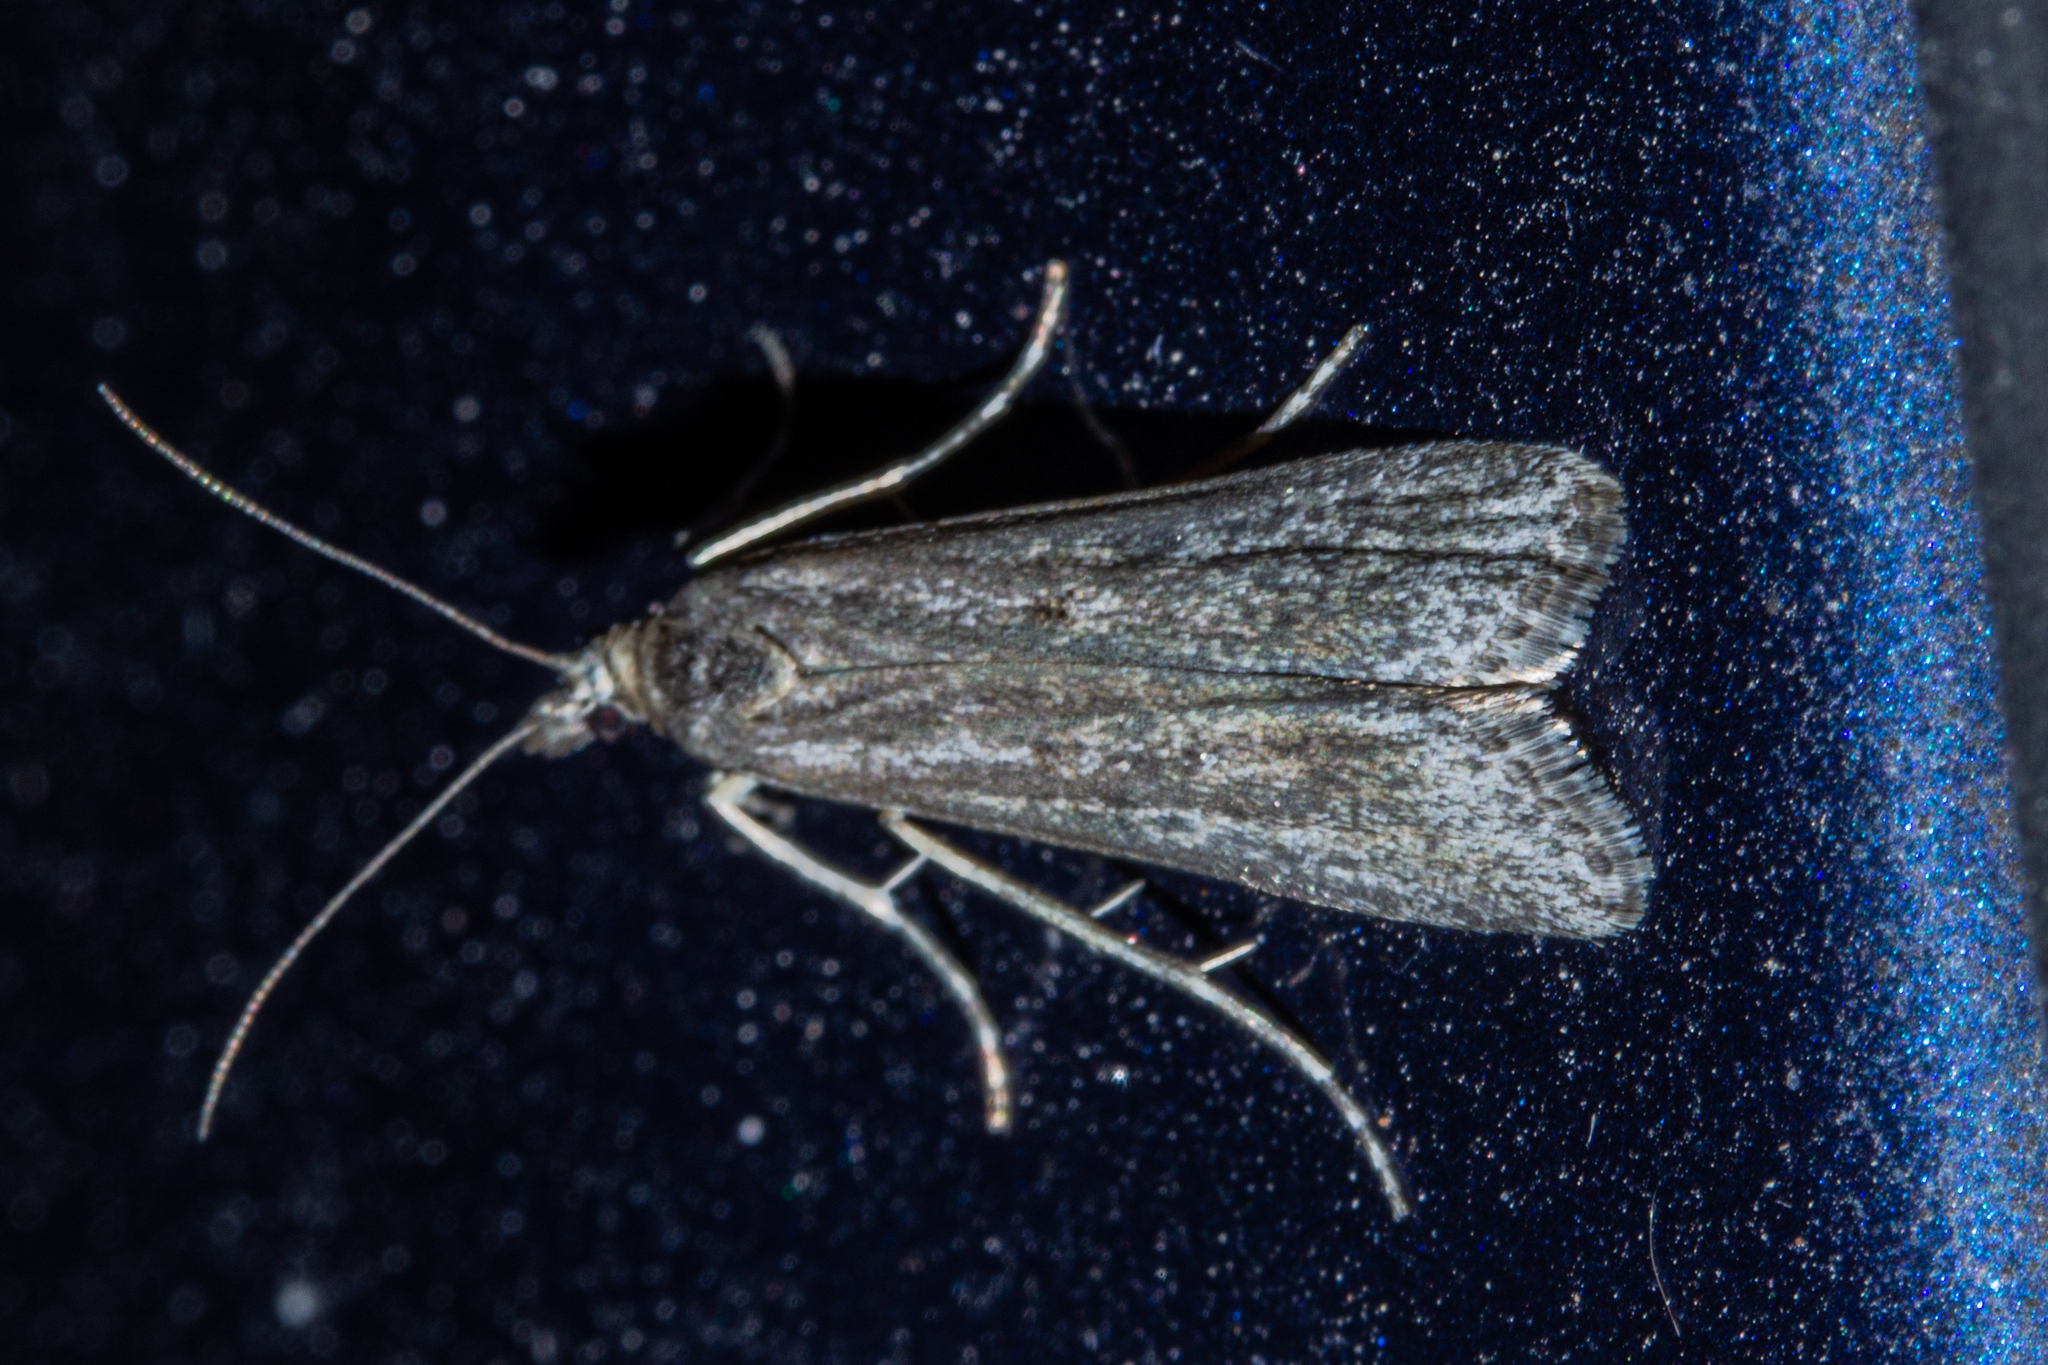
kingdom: Animalia
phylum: Arthropoda
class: Insecta
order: Lepidoptera
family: Crambidae
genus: Eudonia
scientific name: Eudonia leptalea
